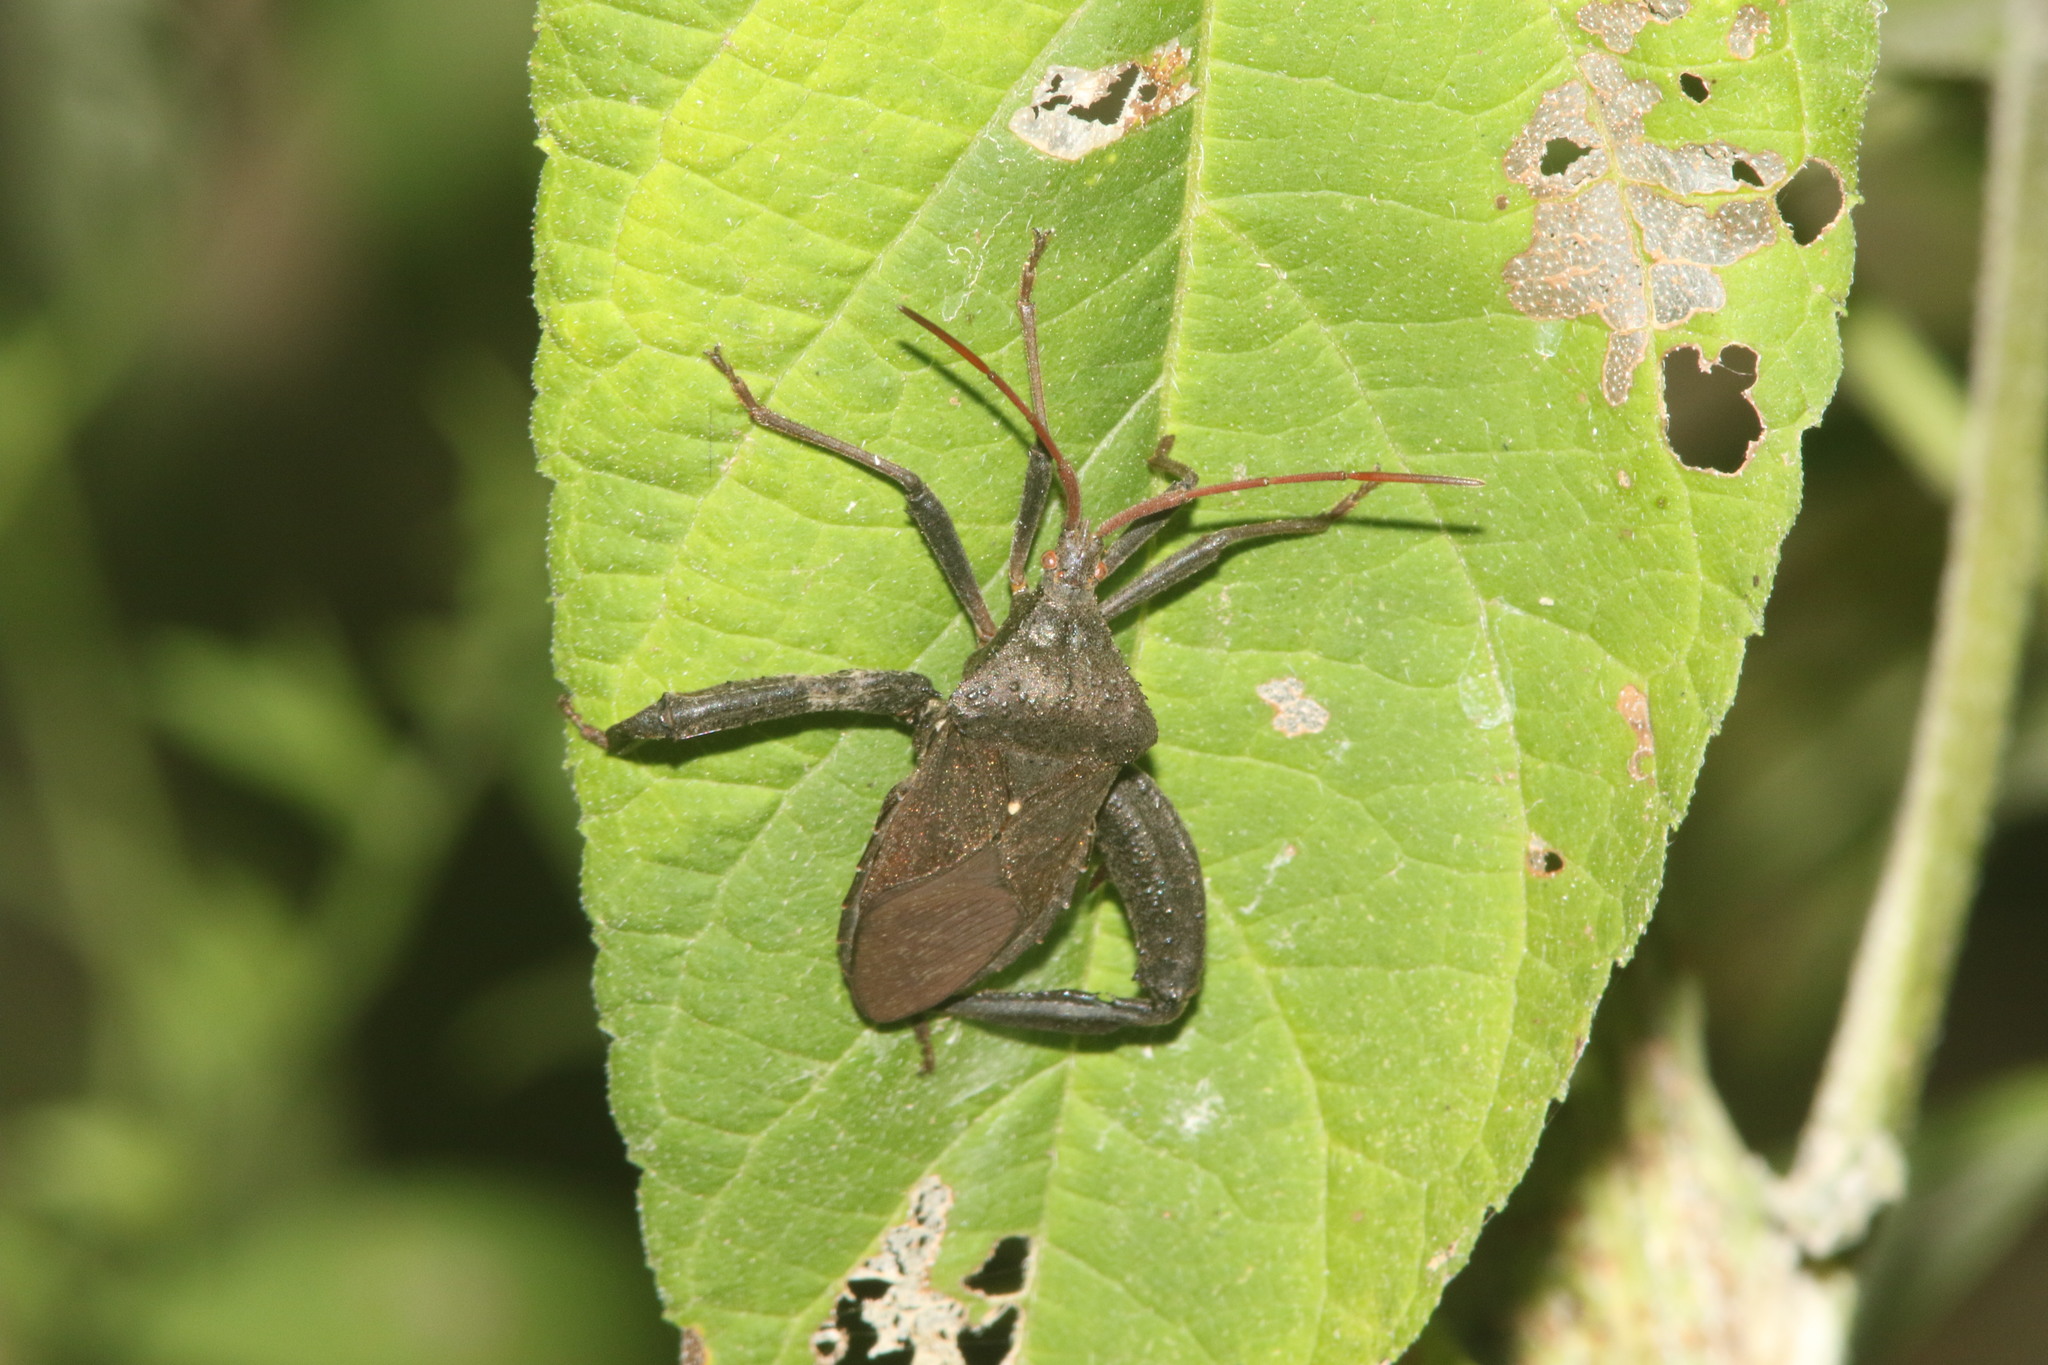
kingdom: Animalia
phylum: Arthropoda
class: Insecta
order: Hemiptera
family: Coreidae
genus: Acanthocephala
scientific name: Acanthocephala femorata
